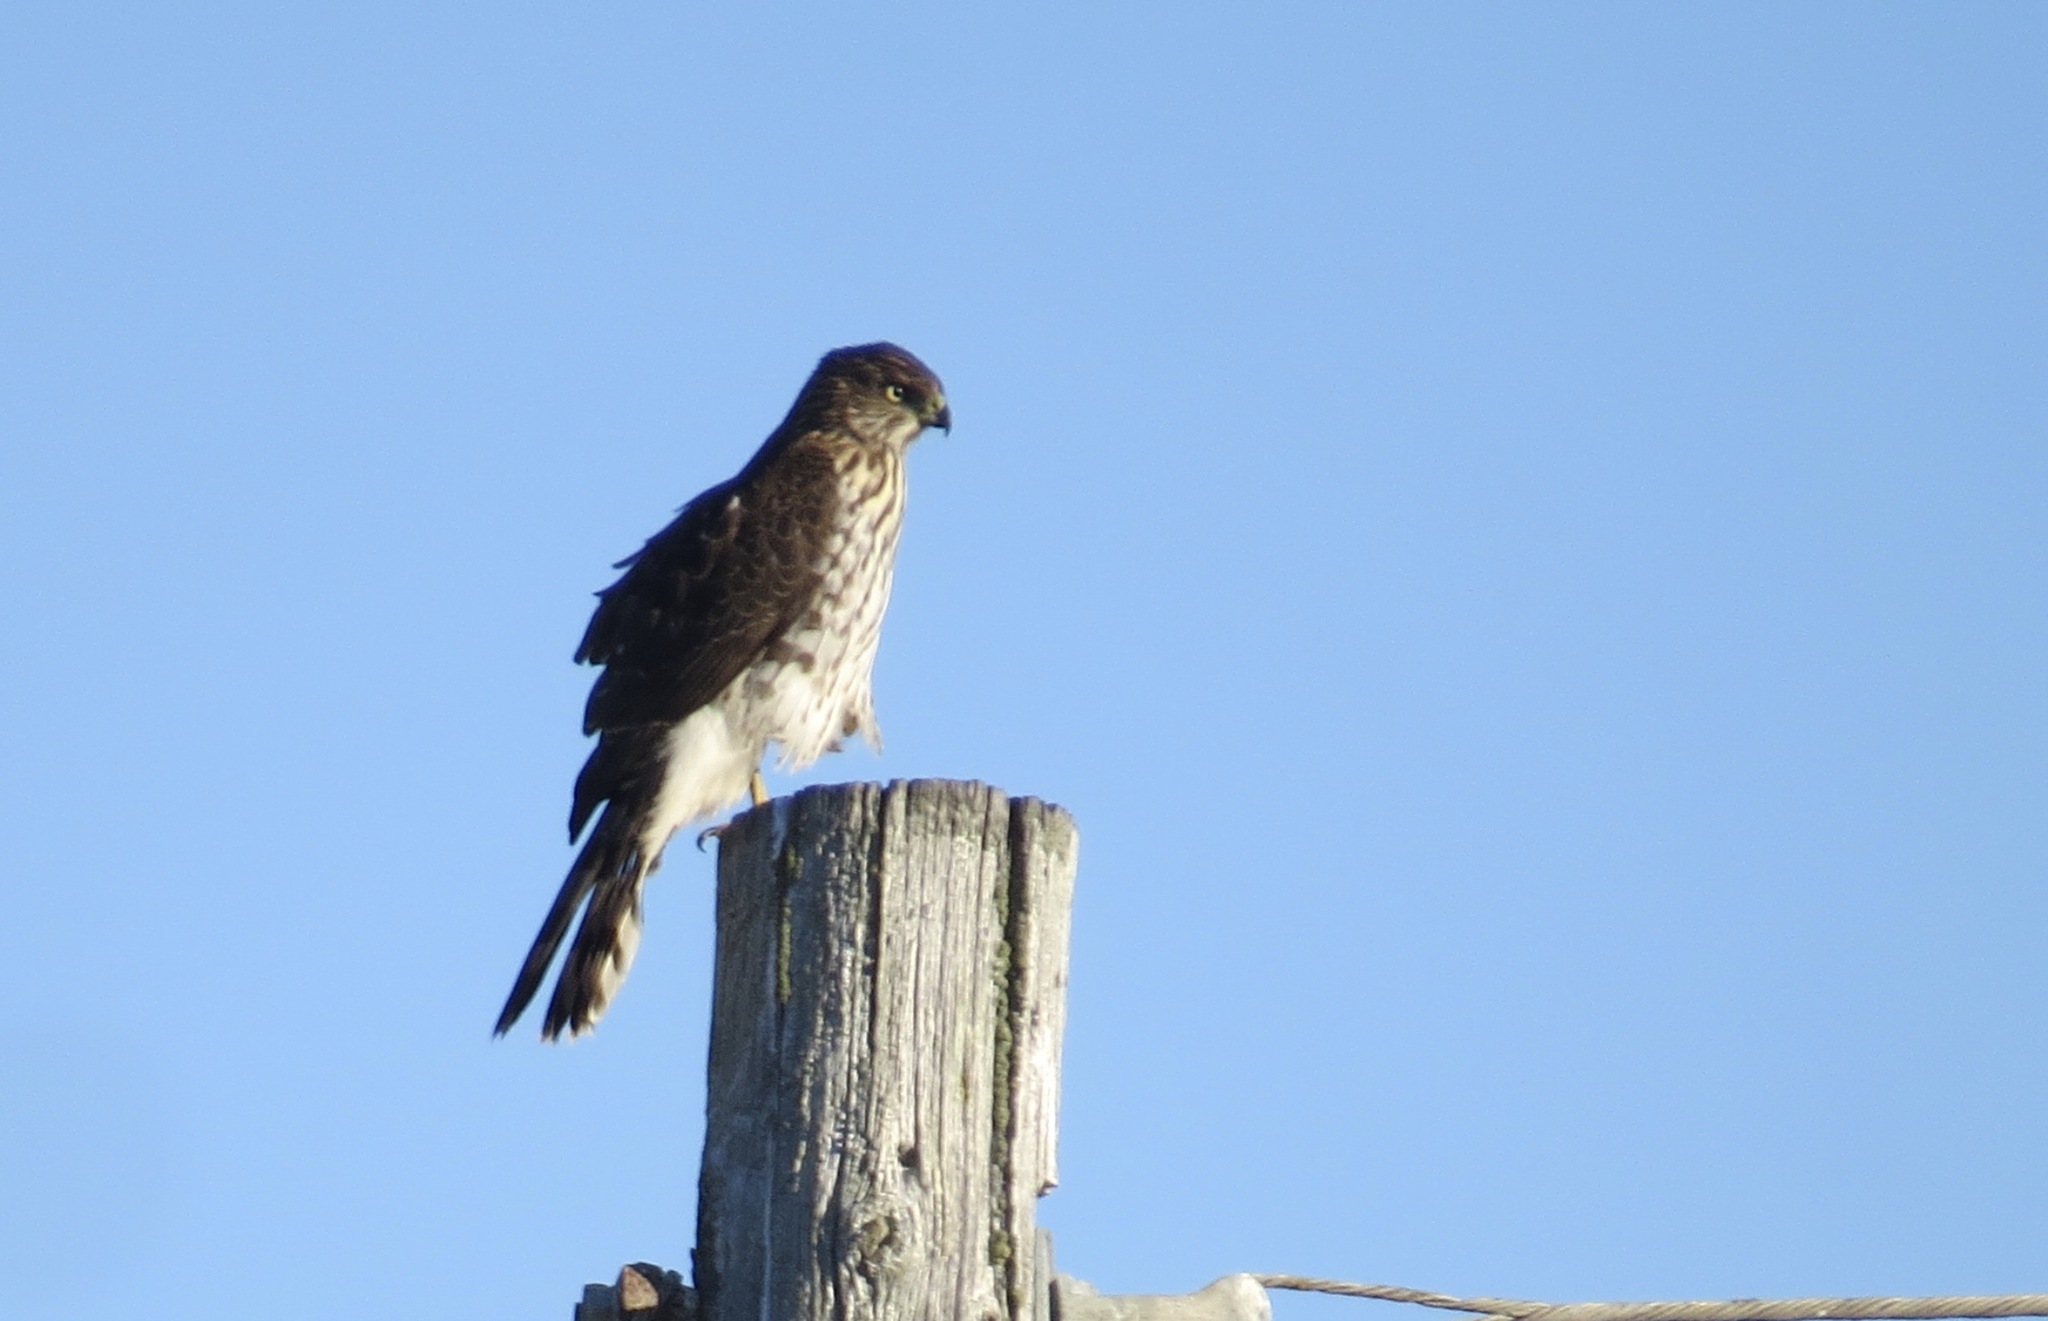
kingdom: Animalia
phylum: Chordata
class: Aves
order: Accipitriformes
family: Accipitridae
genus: Accipiter
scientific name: Accipiter cooperii
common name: Cooper's hawk
